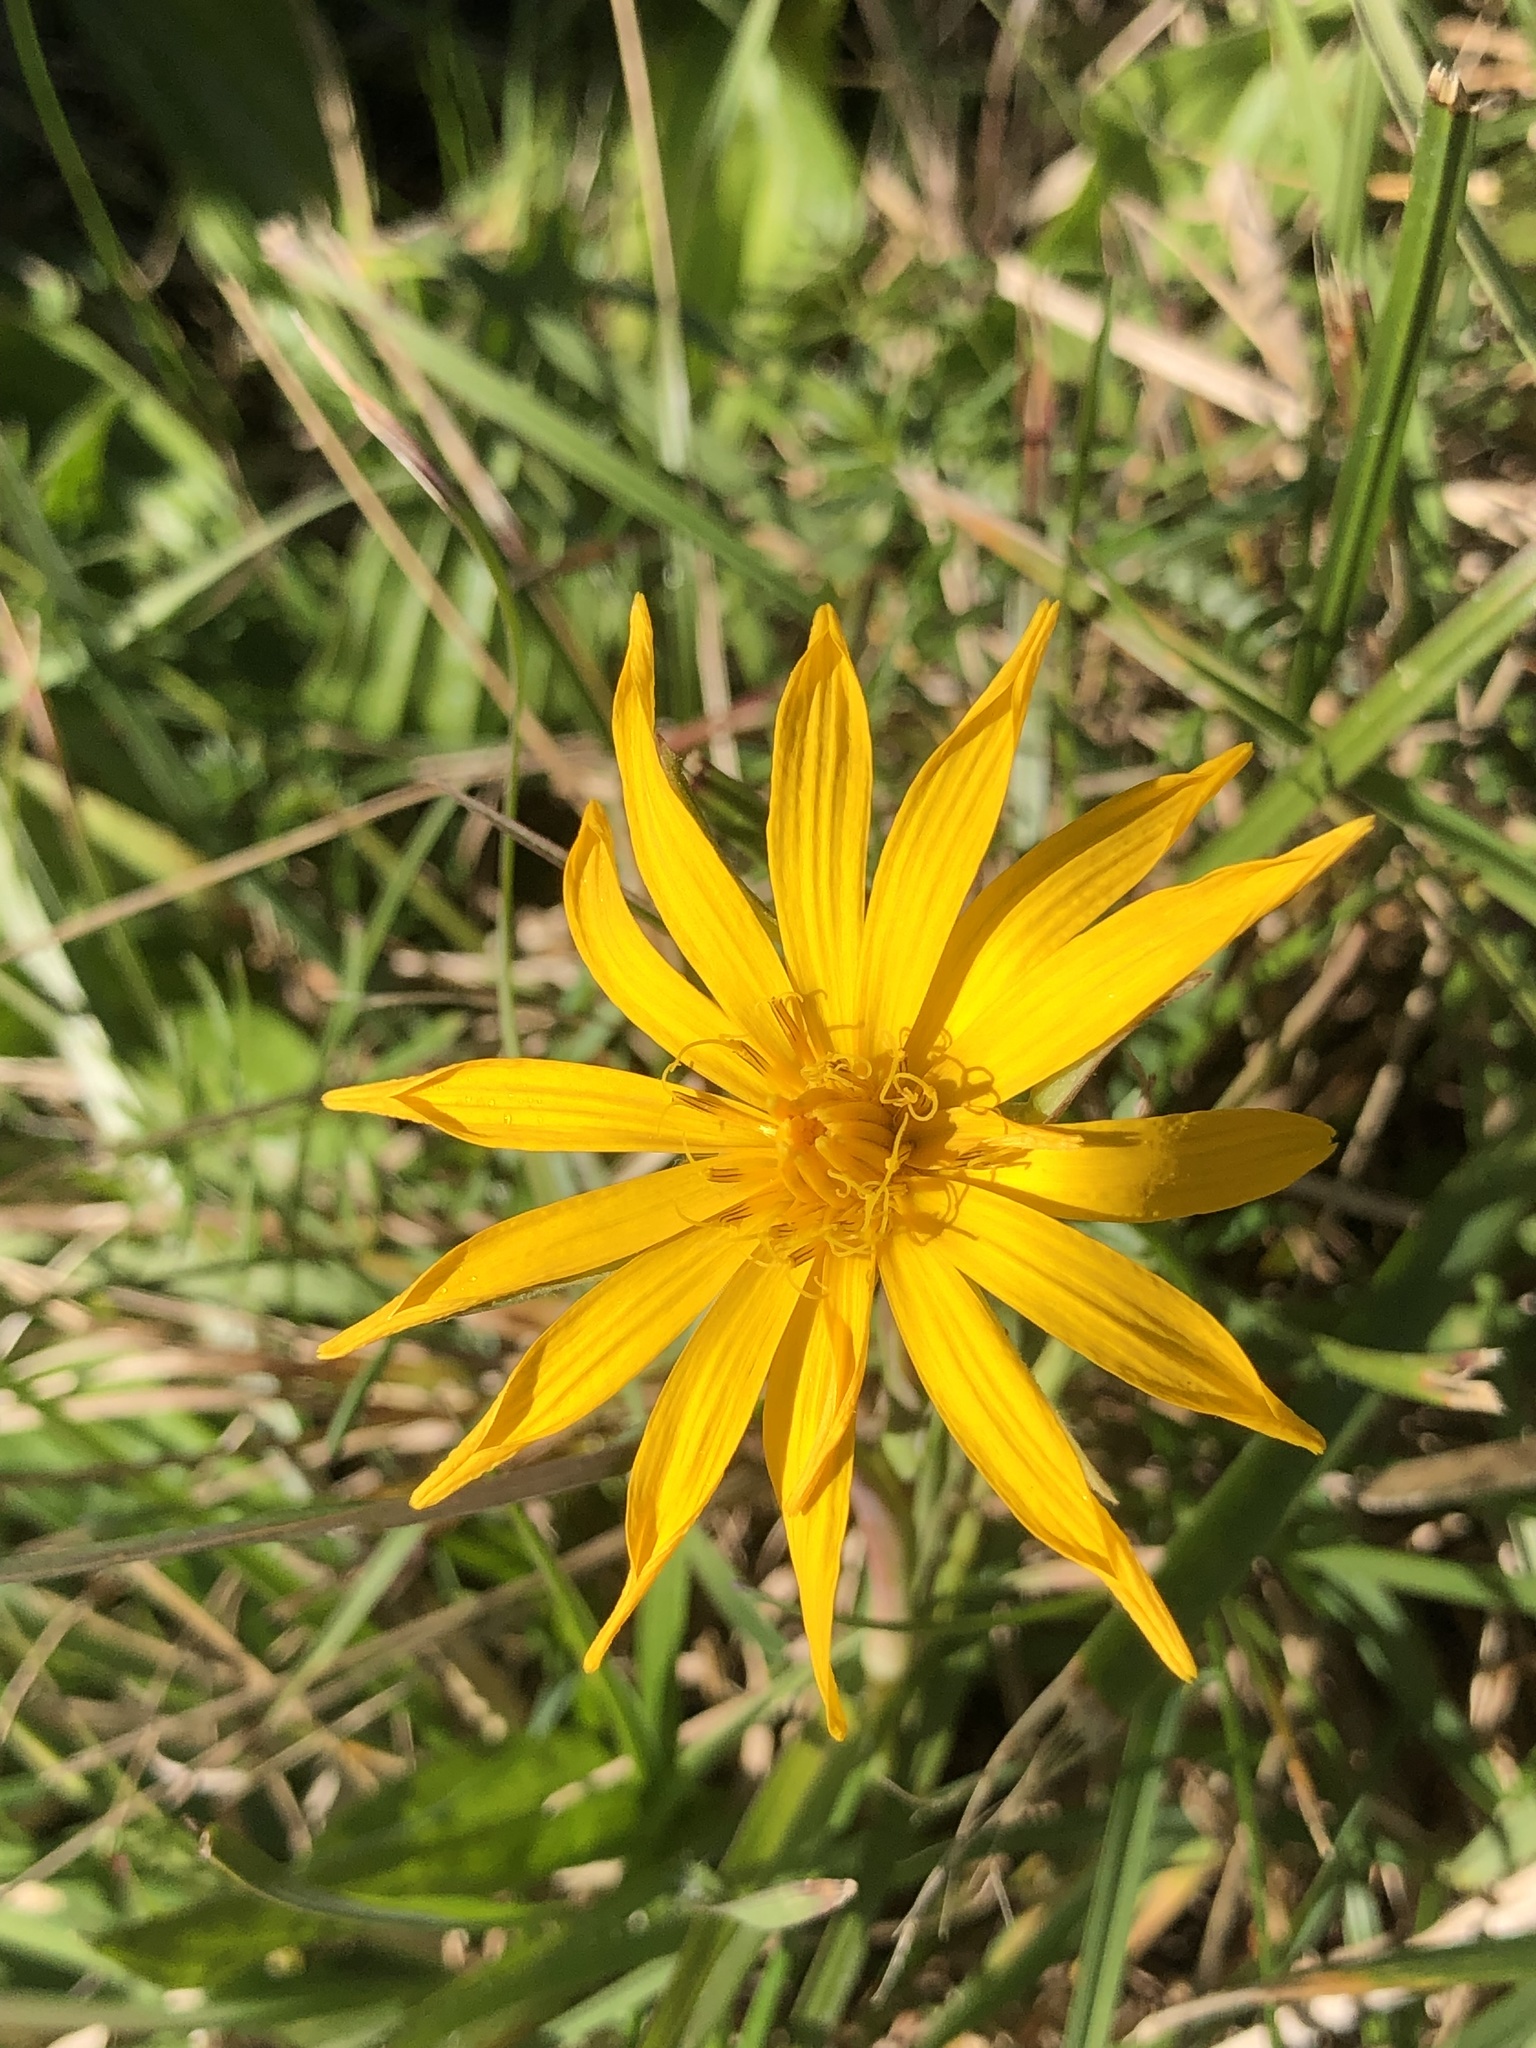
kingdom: Plantae
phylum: Tracheophyta
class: Magnoliopsida
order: Asterales
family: Asteraceae
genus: Tragopogon
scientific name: Tragopogon orientalis
